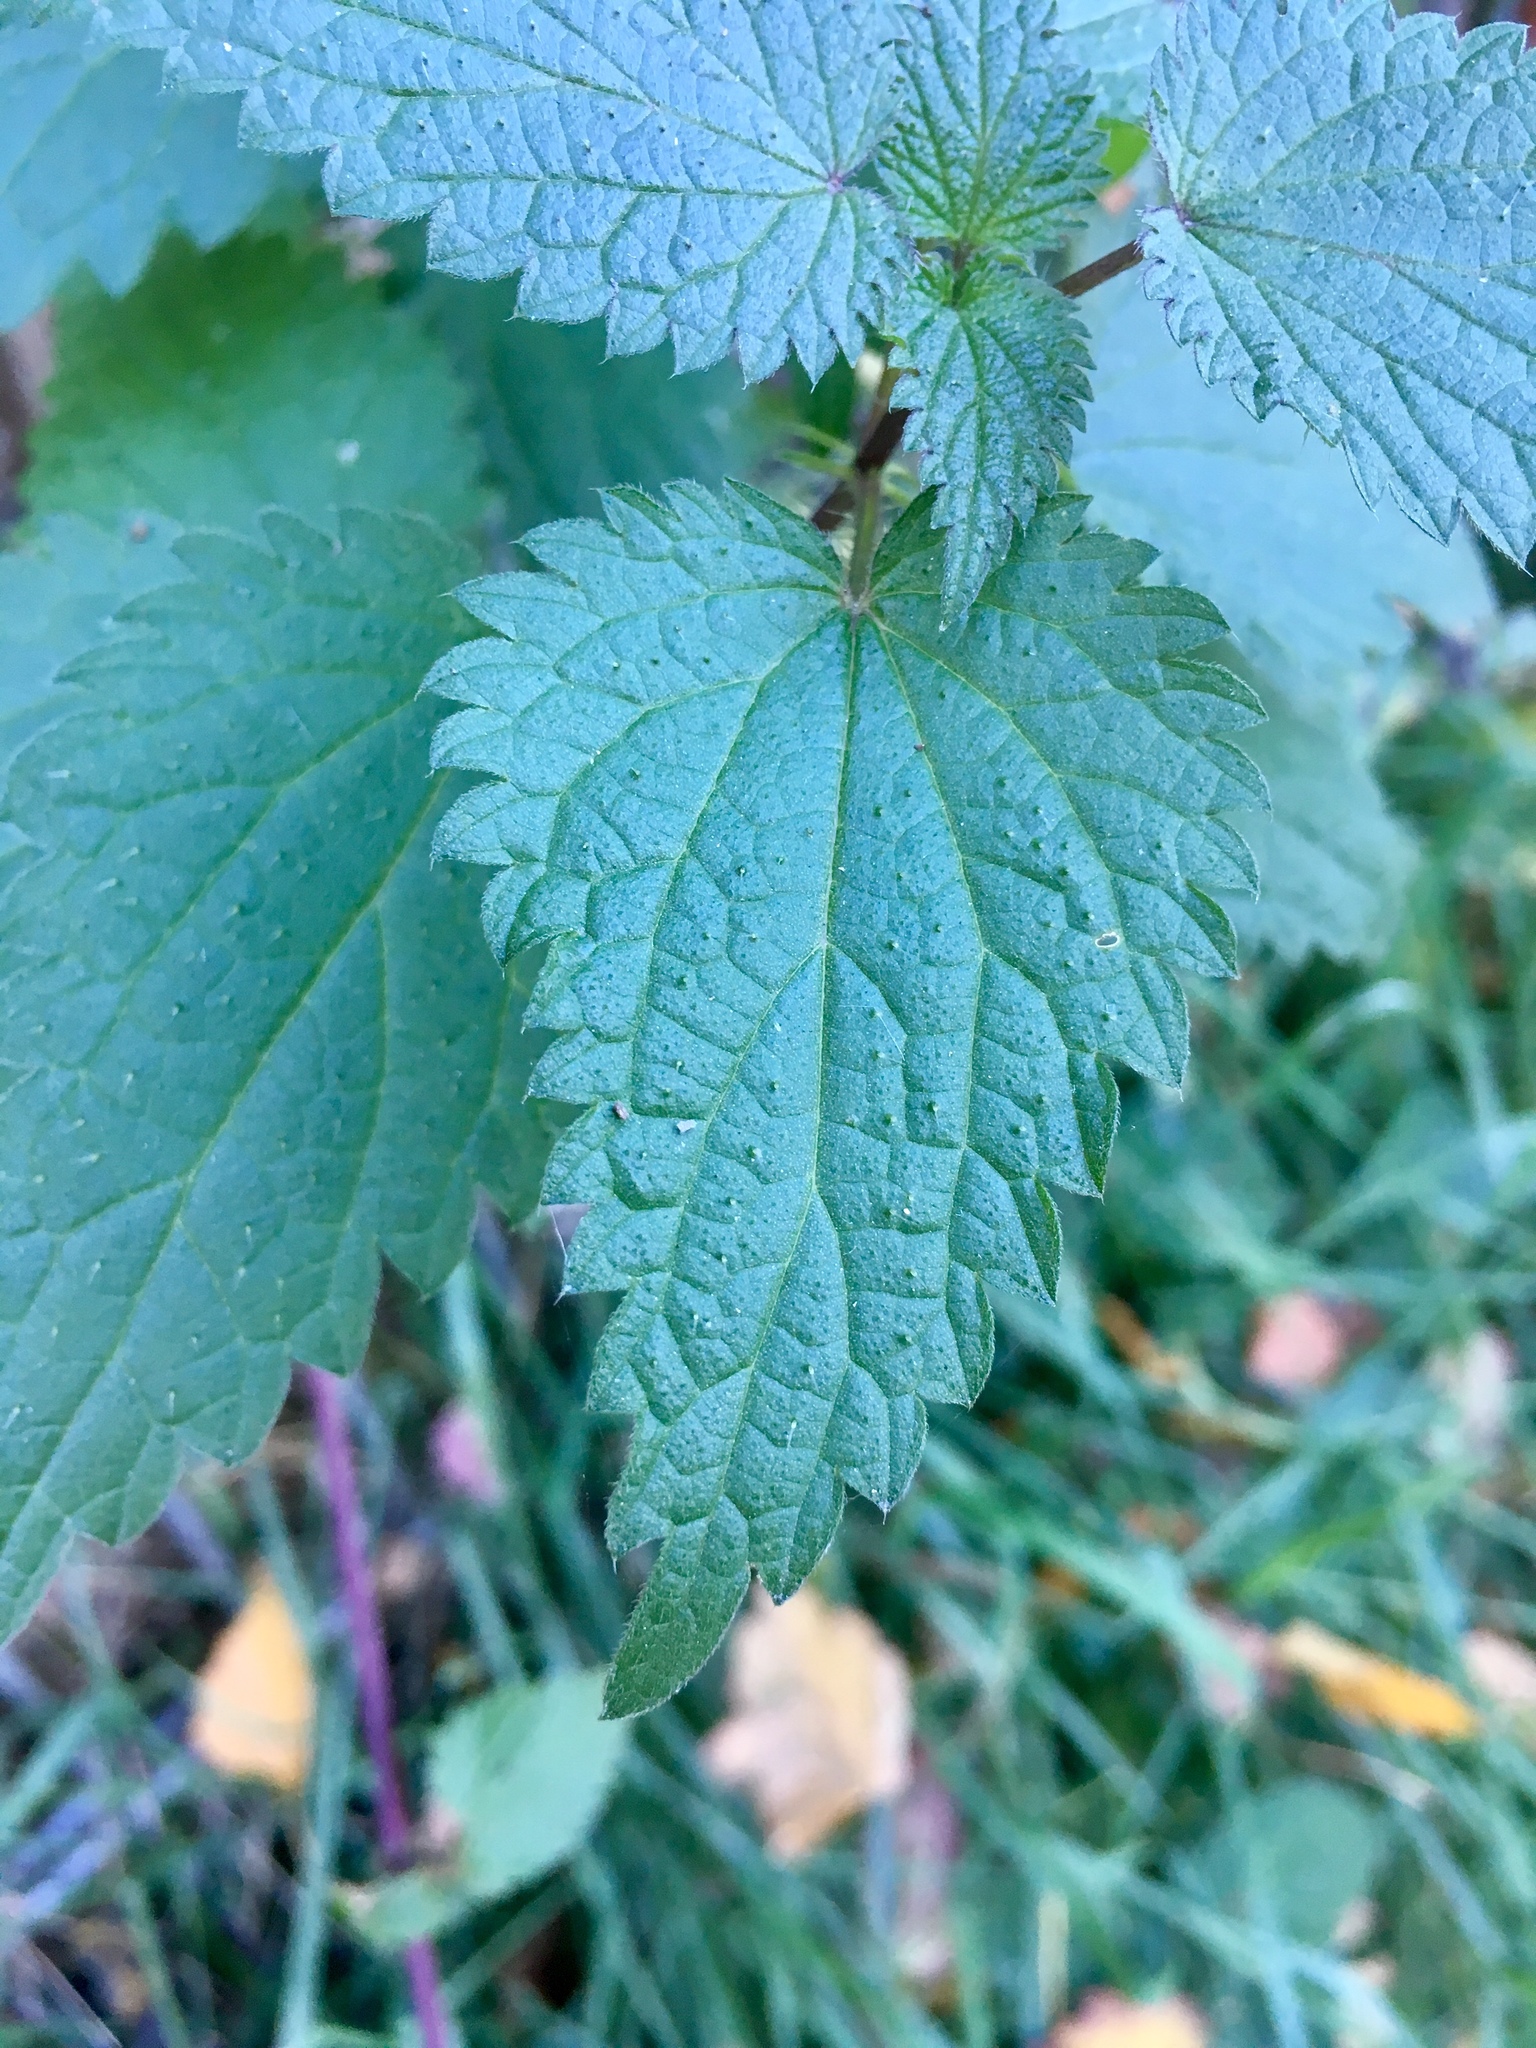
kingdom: Plantae
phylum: Tracheophyta
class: Magnoliopsida
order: Rosales
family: Urticaceae
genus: Urtica
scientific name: Urtica dioica
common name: Common nettle
